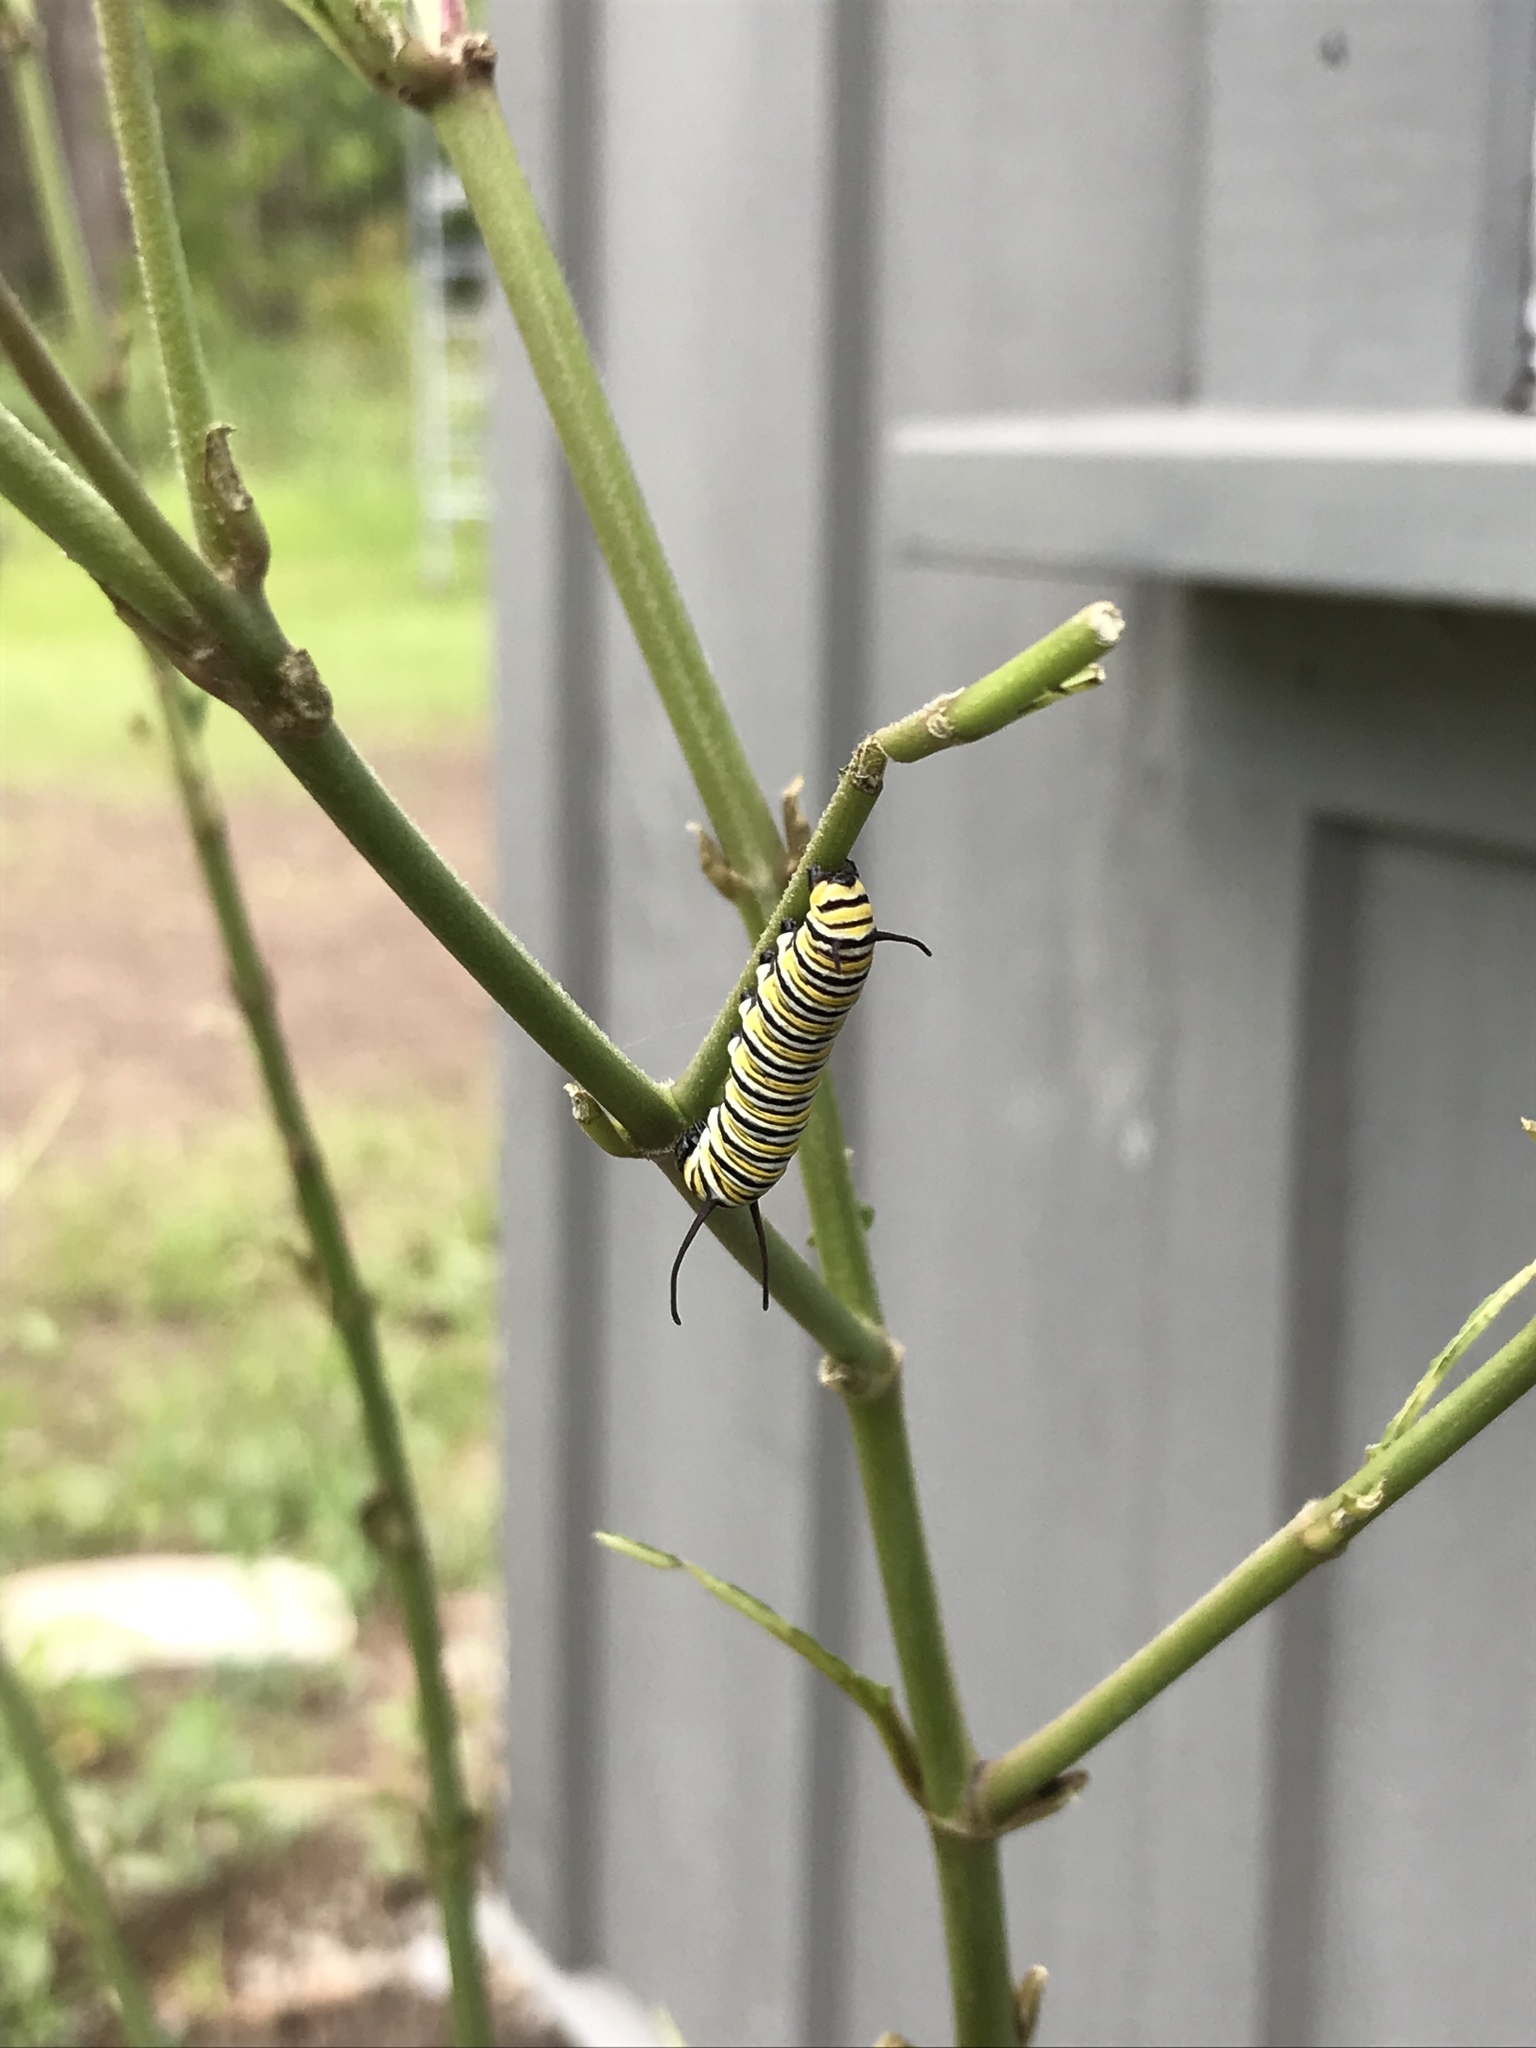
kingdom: Animalia
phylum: Arthropoda
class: Insecta
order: Lepidoptera
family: Nymphalidae
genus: Danaus
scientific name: Danaus plexippus
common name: Monarch
